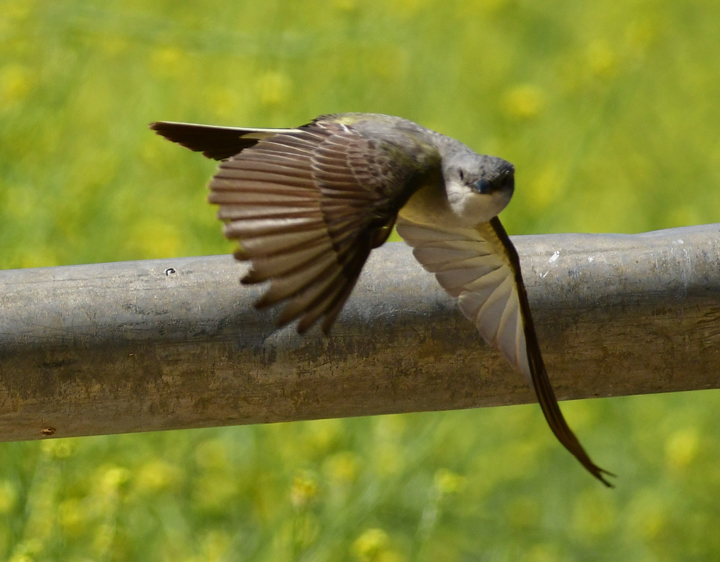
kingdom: Animalia
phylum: Chordata
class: Aves
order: Passeriformes
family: Tyrannidae
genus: Tyrannus
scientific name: Tyrannus verticalis
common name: Western kingbird
